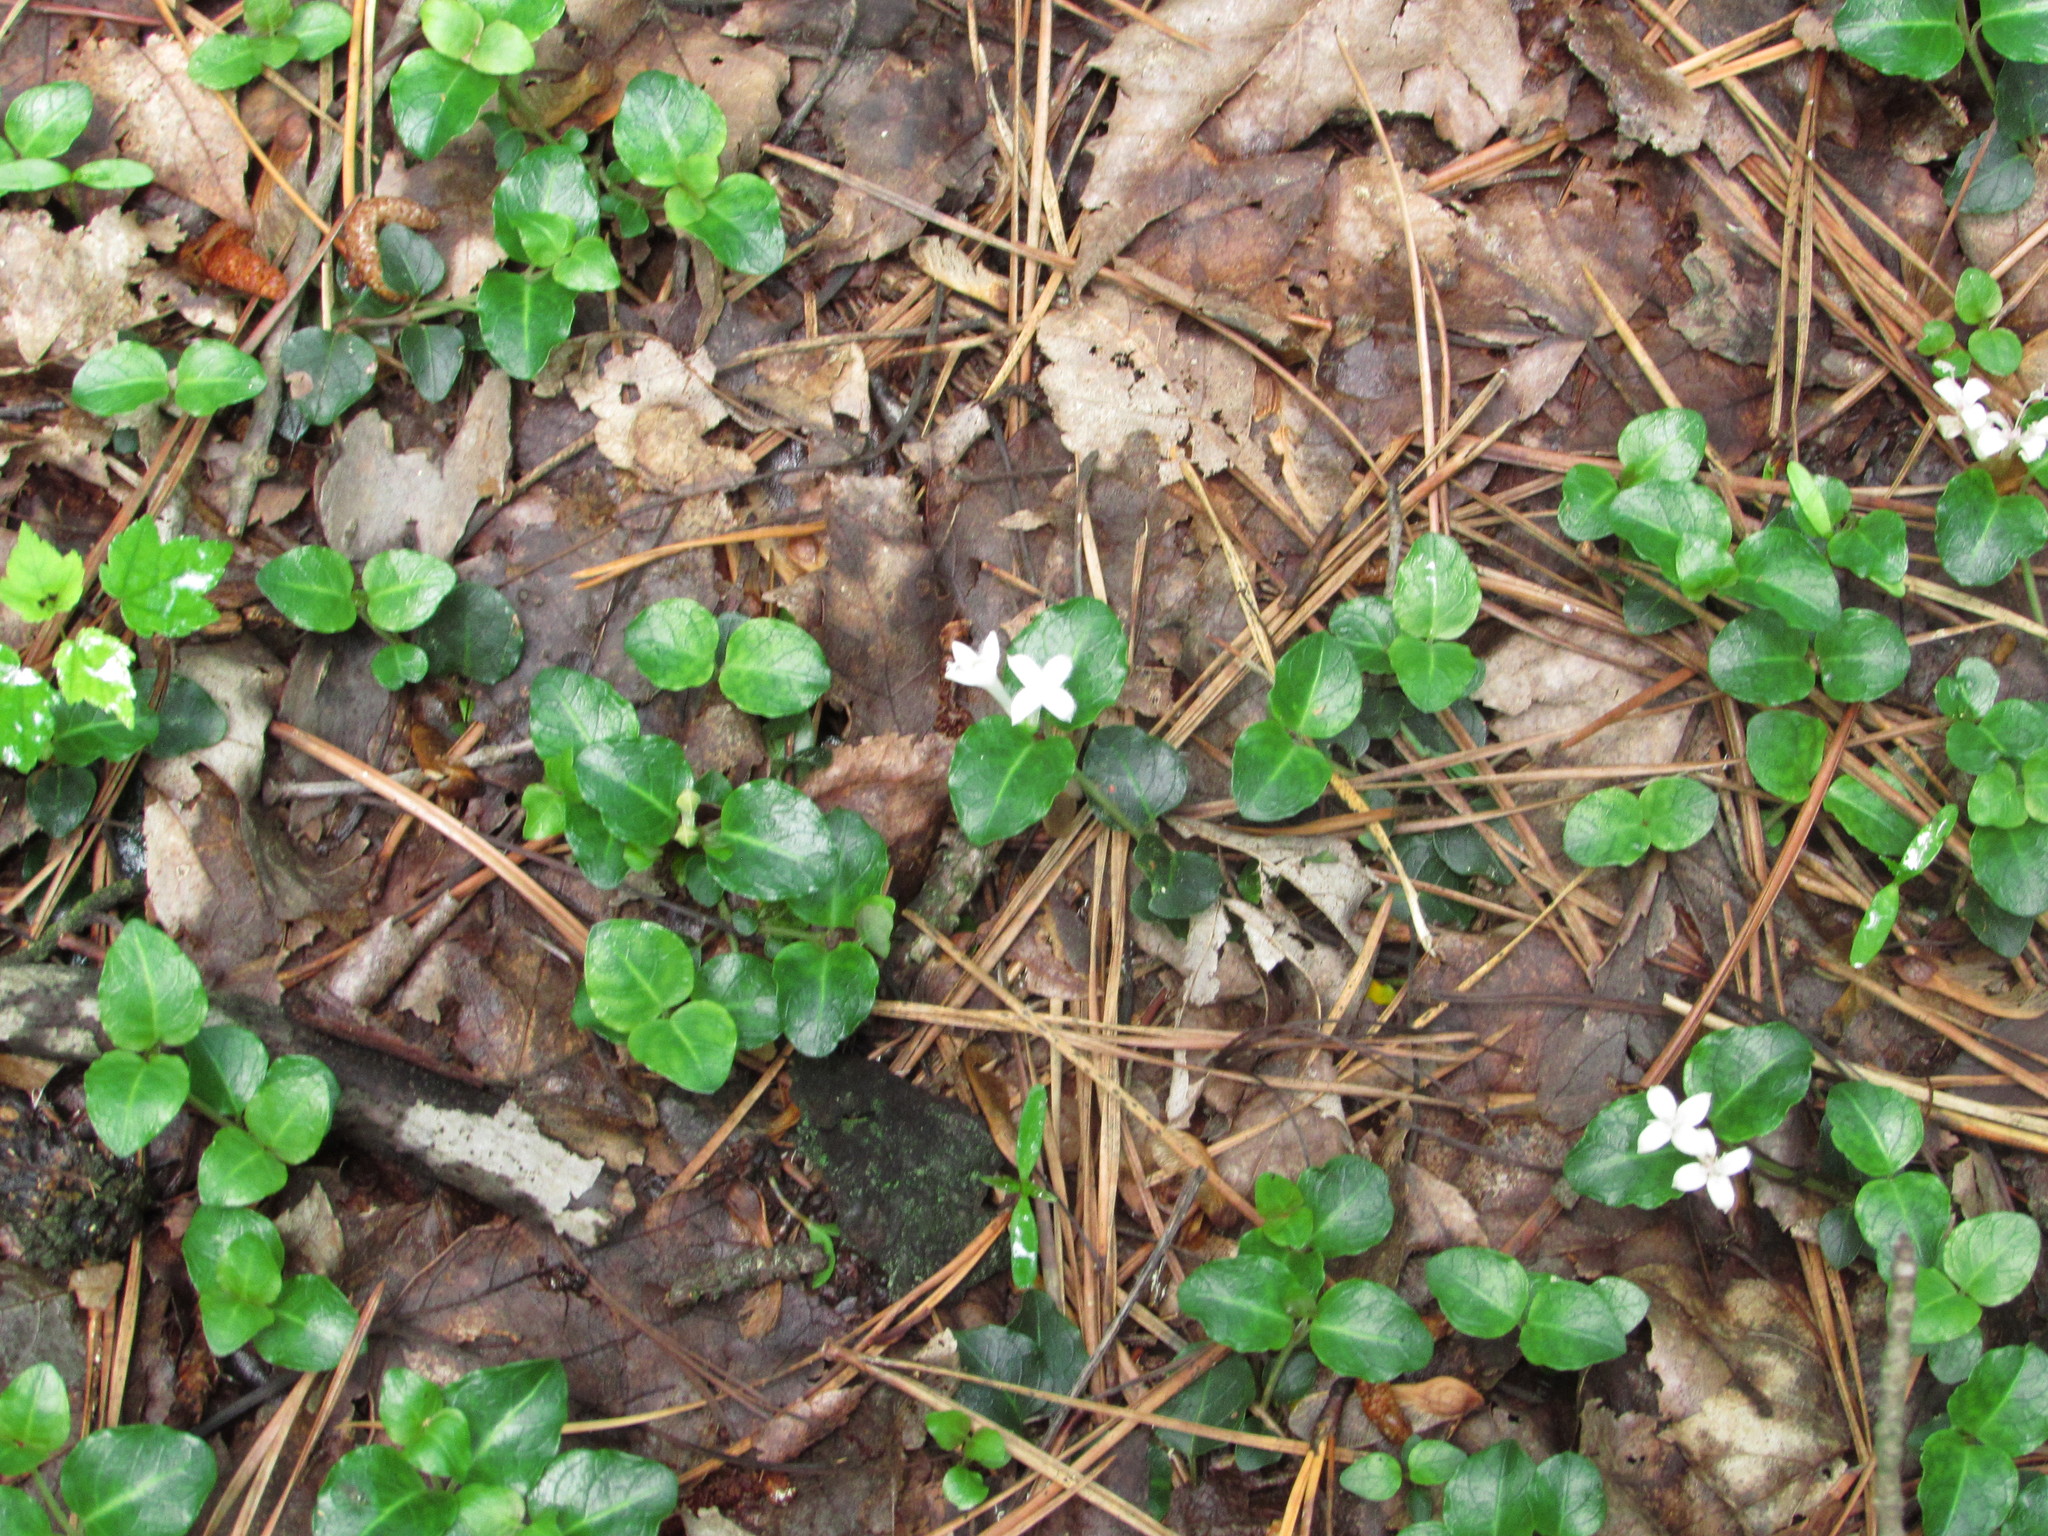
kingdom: Plantae
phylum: Tracheophyta
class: Magnoliopsida
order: Gentianales
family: Rubiaceae
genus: Mitchella
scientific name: Mitchella repens
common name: Partridge-berry
